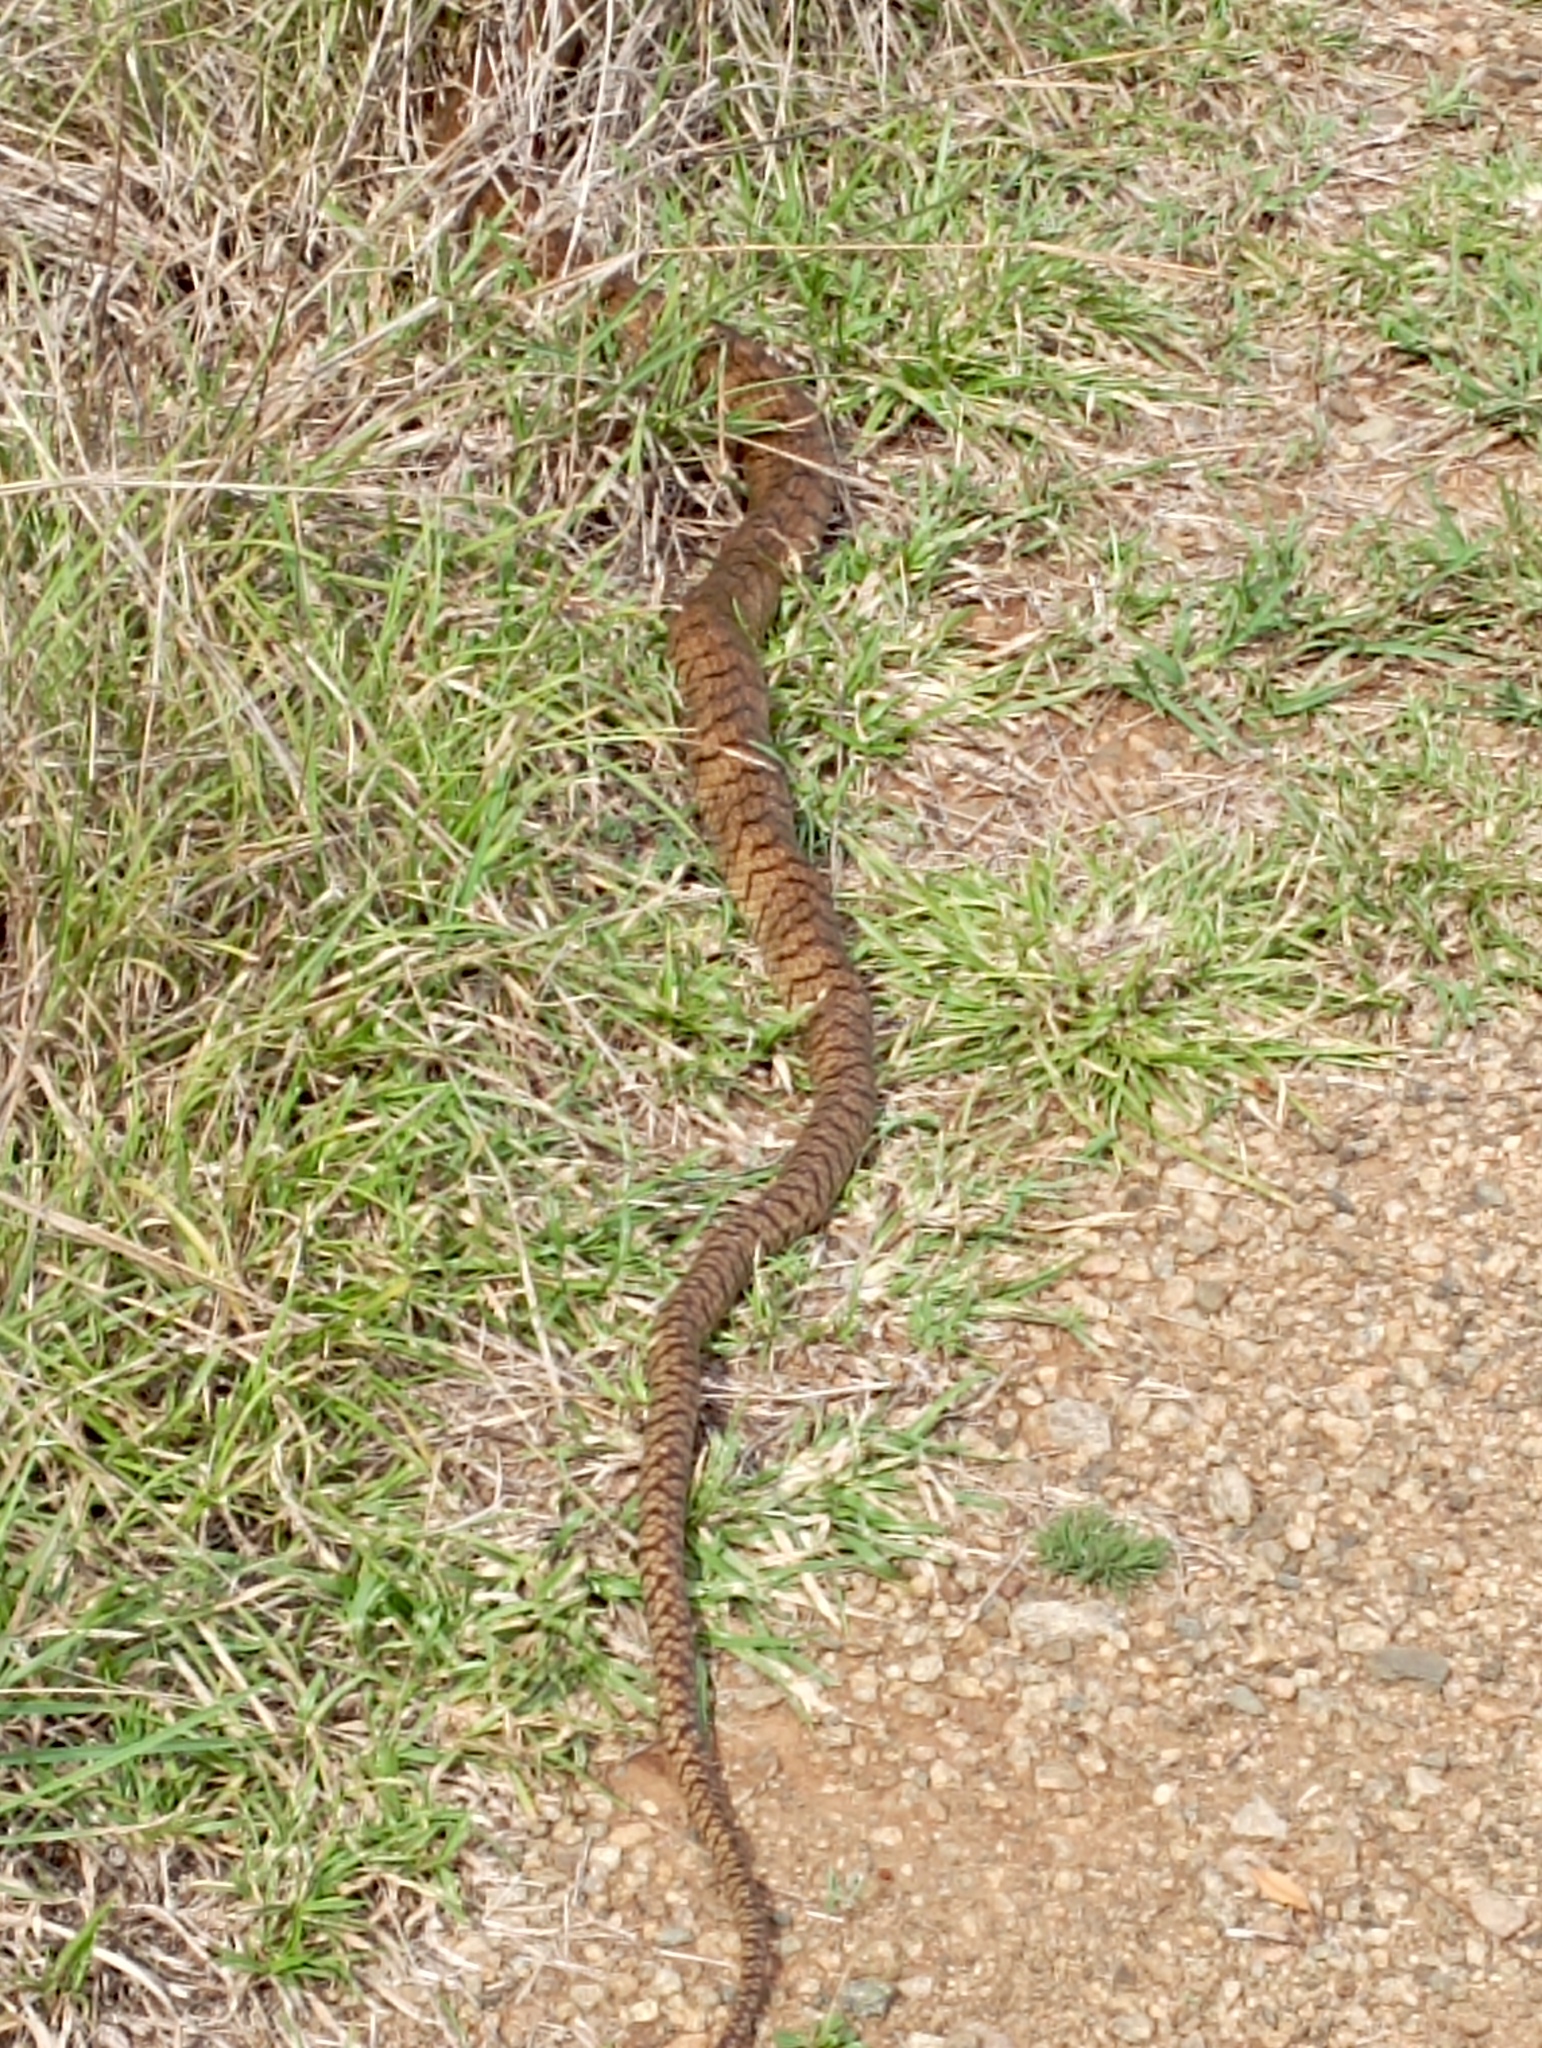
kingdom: Animalia
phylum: Chordata
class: Squamata
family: Colubridae
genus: Ptyas
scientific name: Ptyas mucosa
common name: Oriental ratsnake
